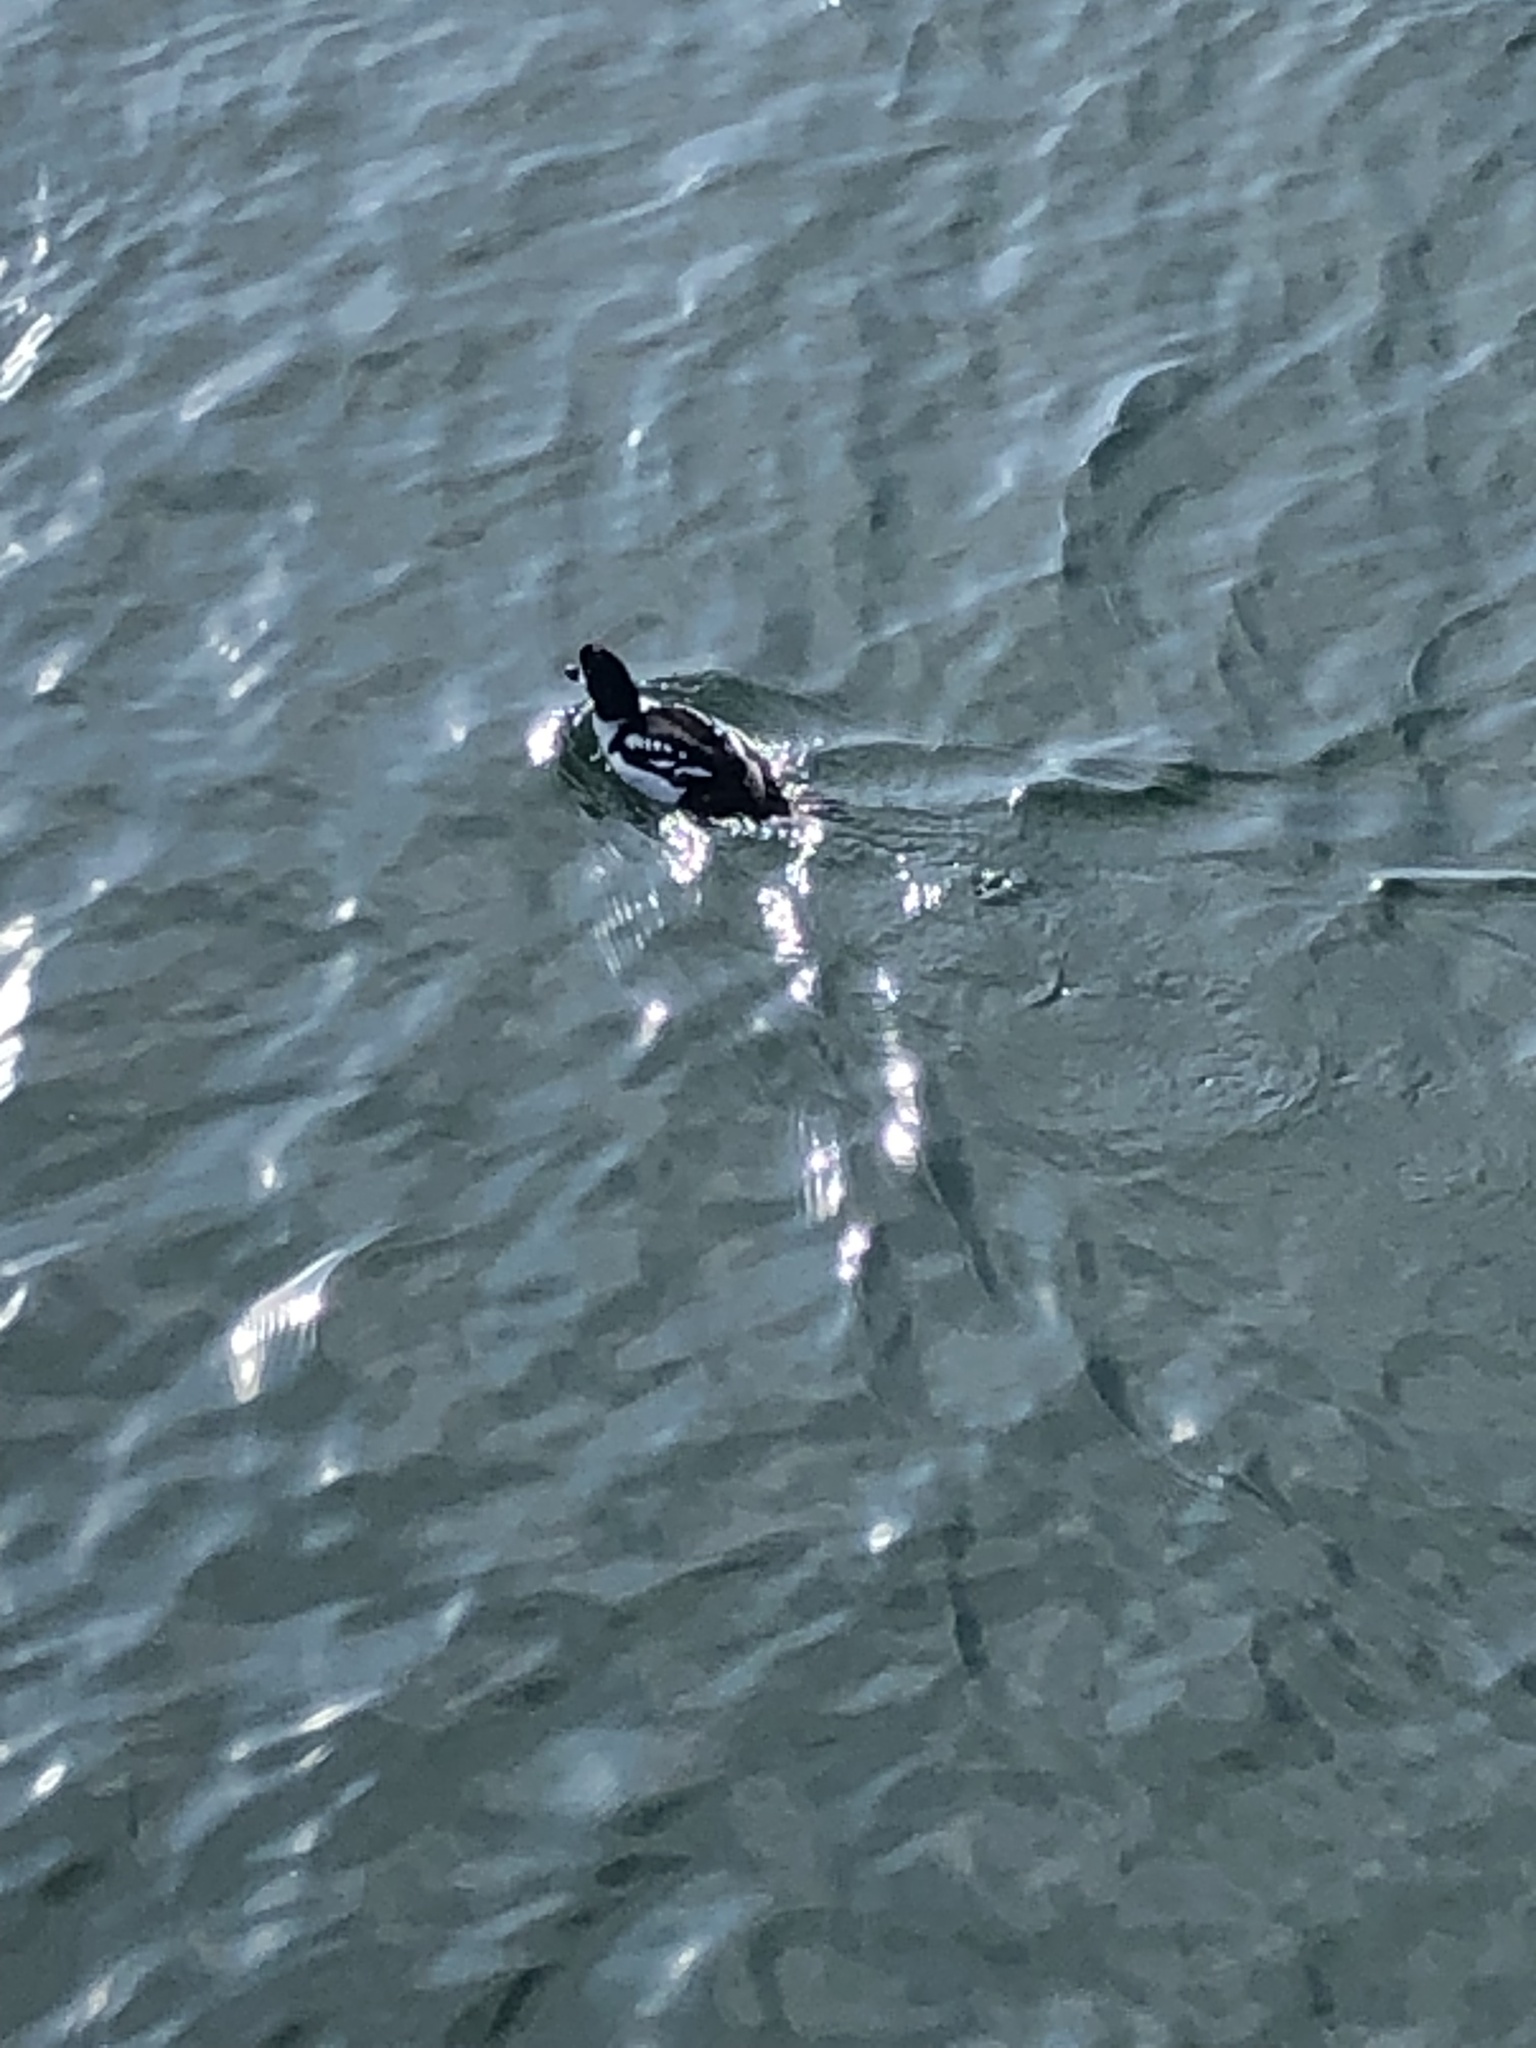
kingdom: Animalia
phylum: Chordata
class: Aves
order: Anseriformes
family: Anatidae
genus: Bucephala
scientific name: Bucephala islandica
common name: Barrow's goldeneye
